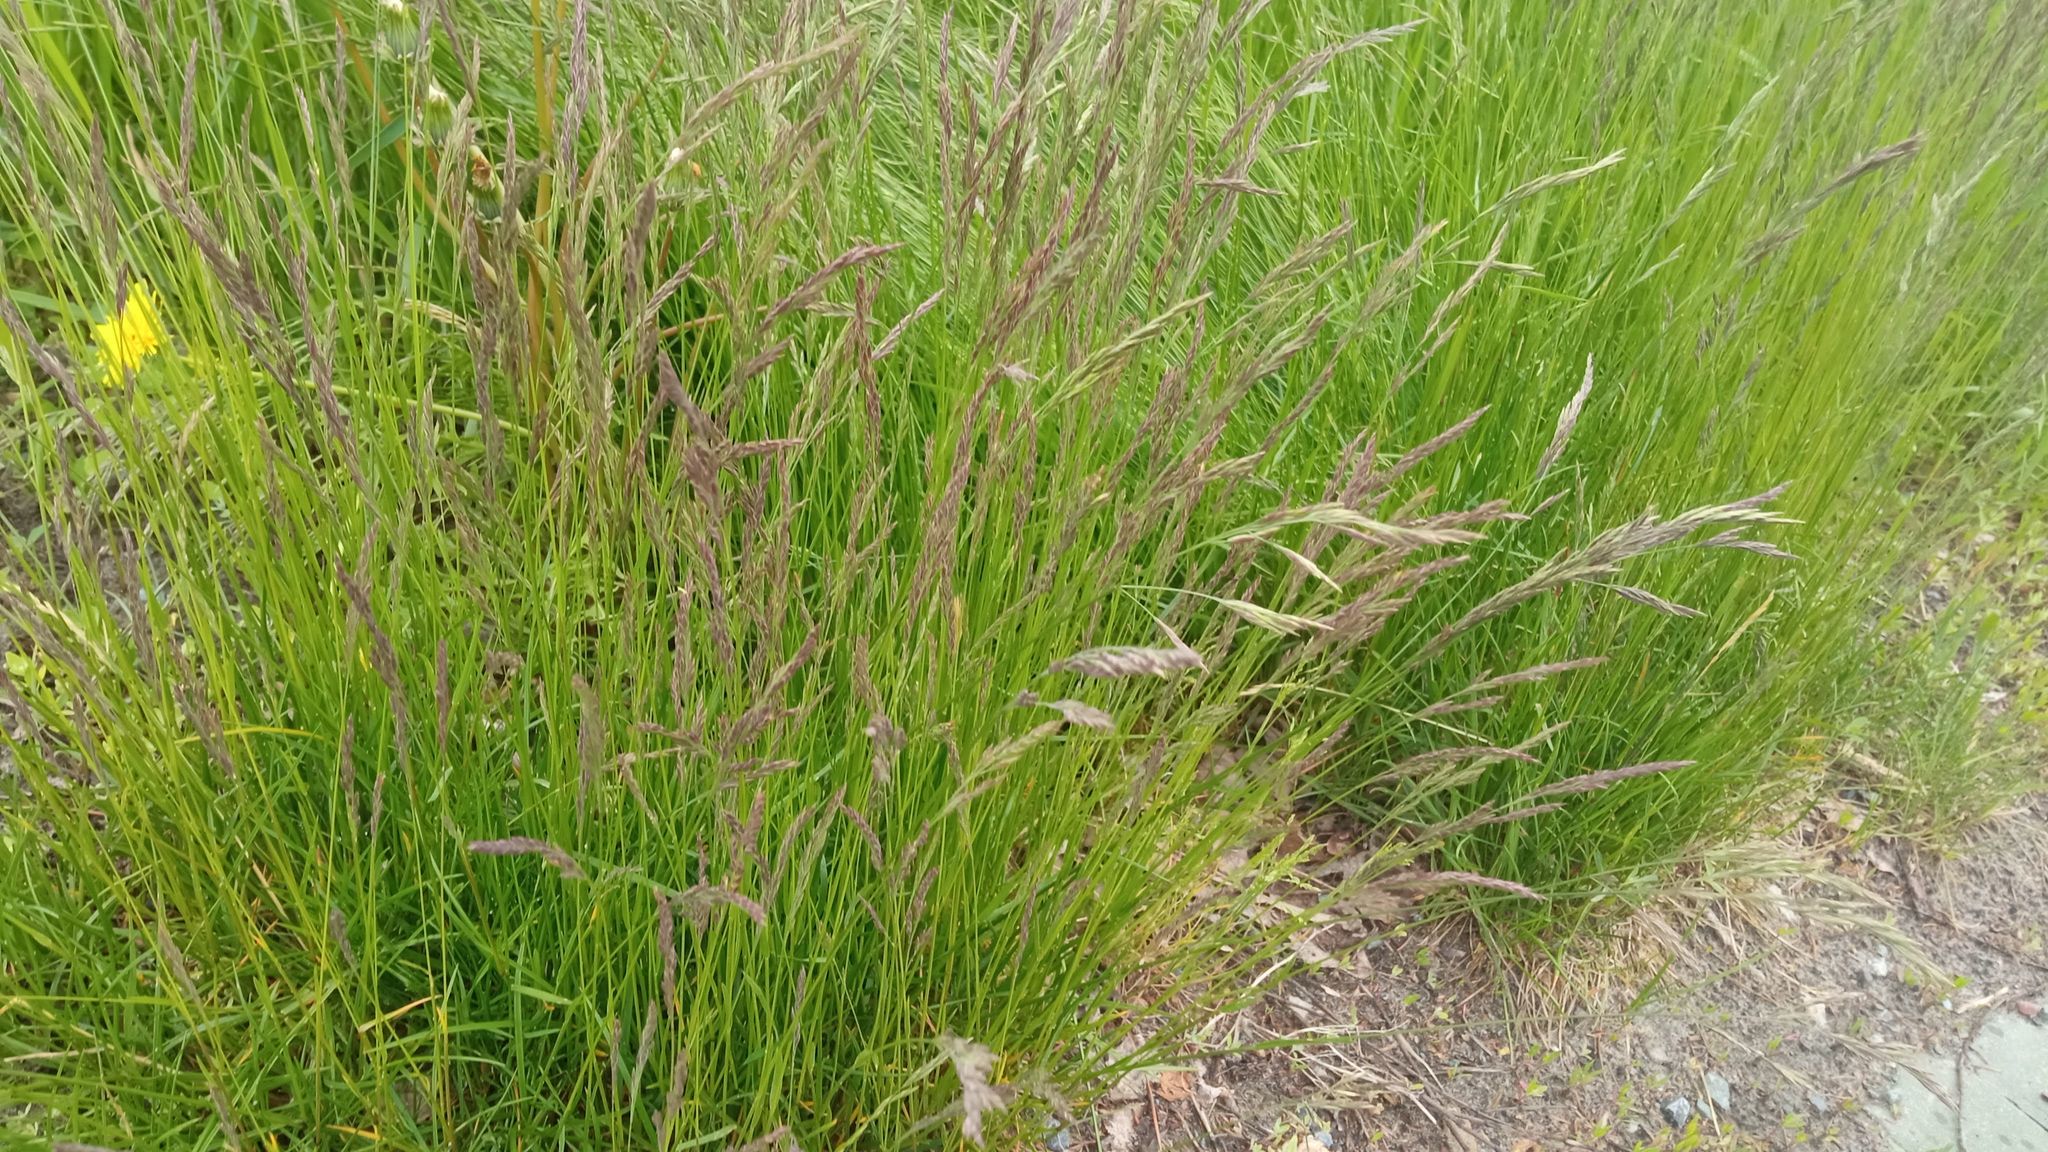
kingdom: Plantae
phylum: Tracheophyta
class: Liliopsida
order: Poales
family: Poaceae
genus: Festuca
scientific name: Festuca rubra
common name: Red fescue
